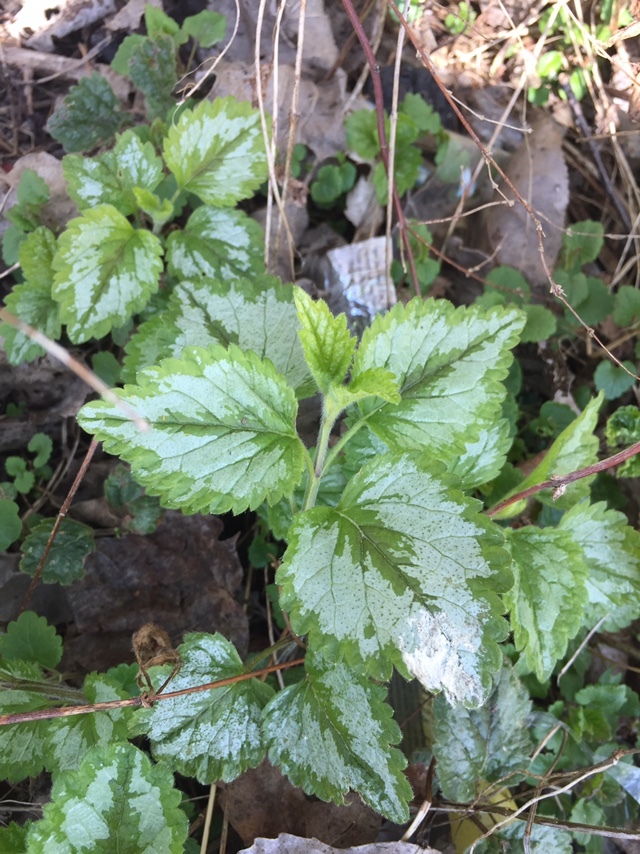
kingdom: Plantae
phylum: Tracheophyta
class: Magnoliopsida
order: Lamiales
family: Lamiaceae
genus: Lamium
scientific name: Lamium galeobdolon
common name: Yellow archangel
